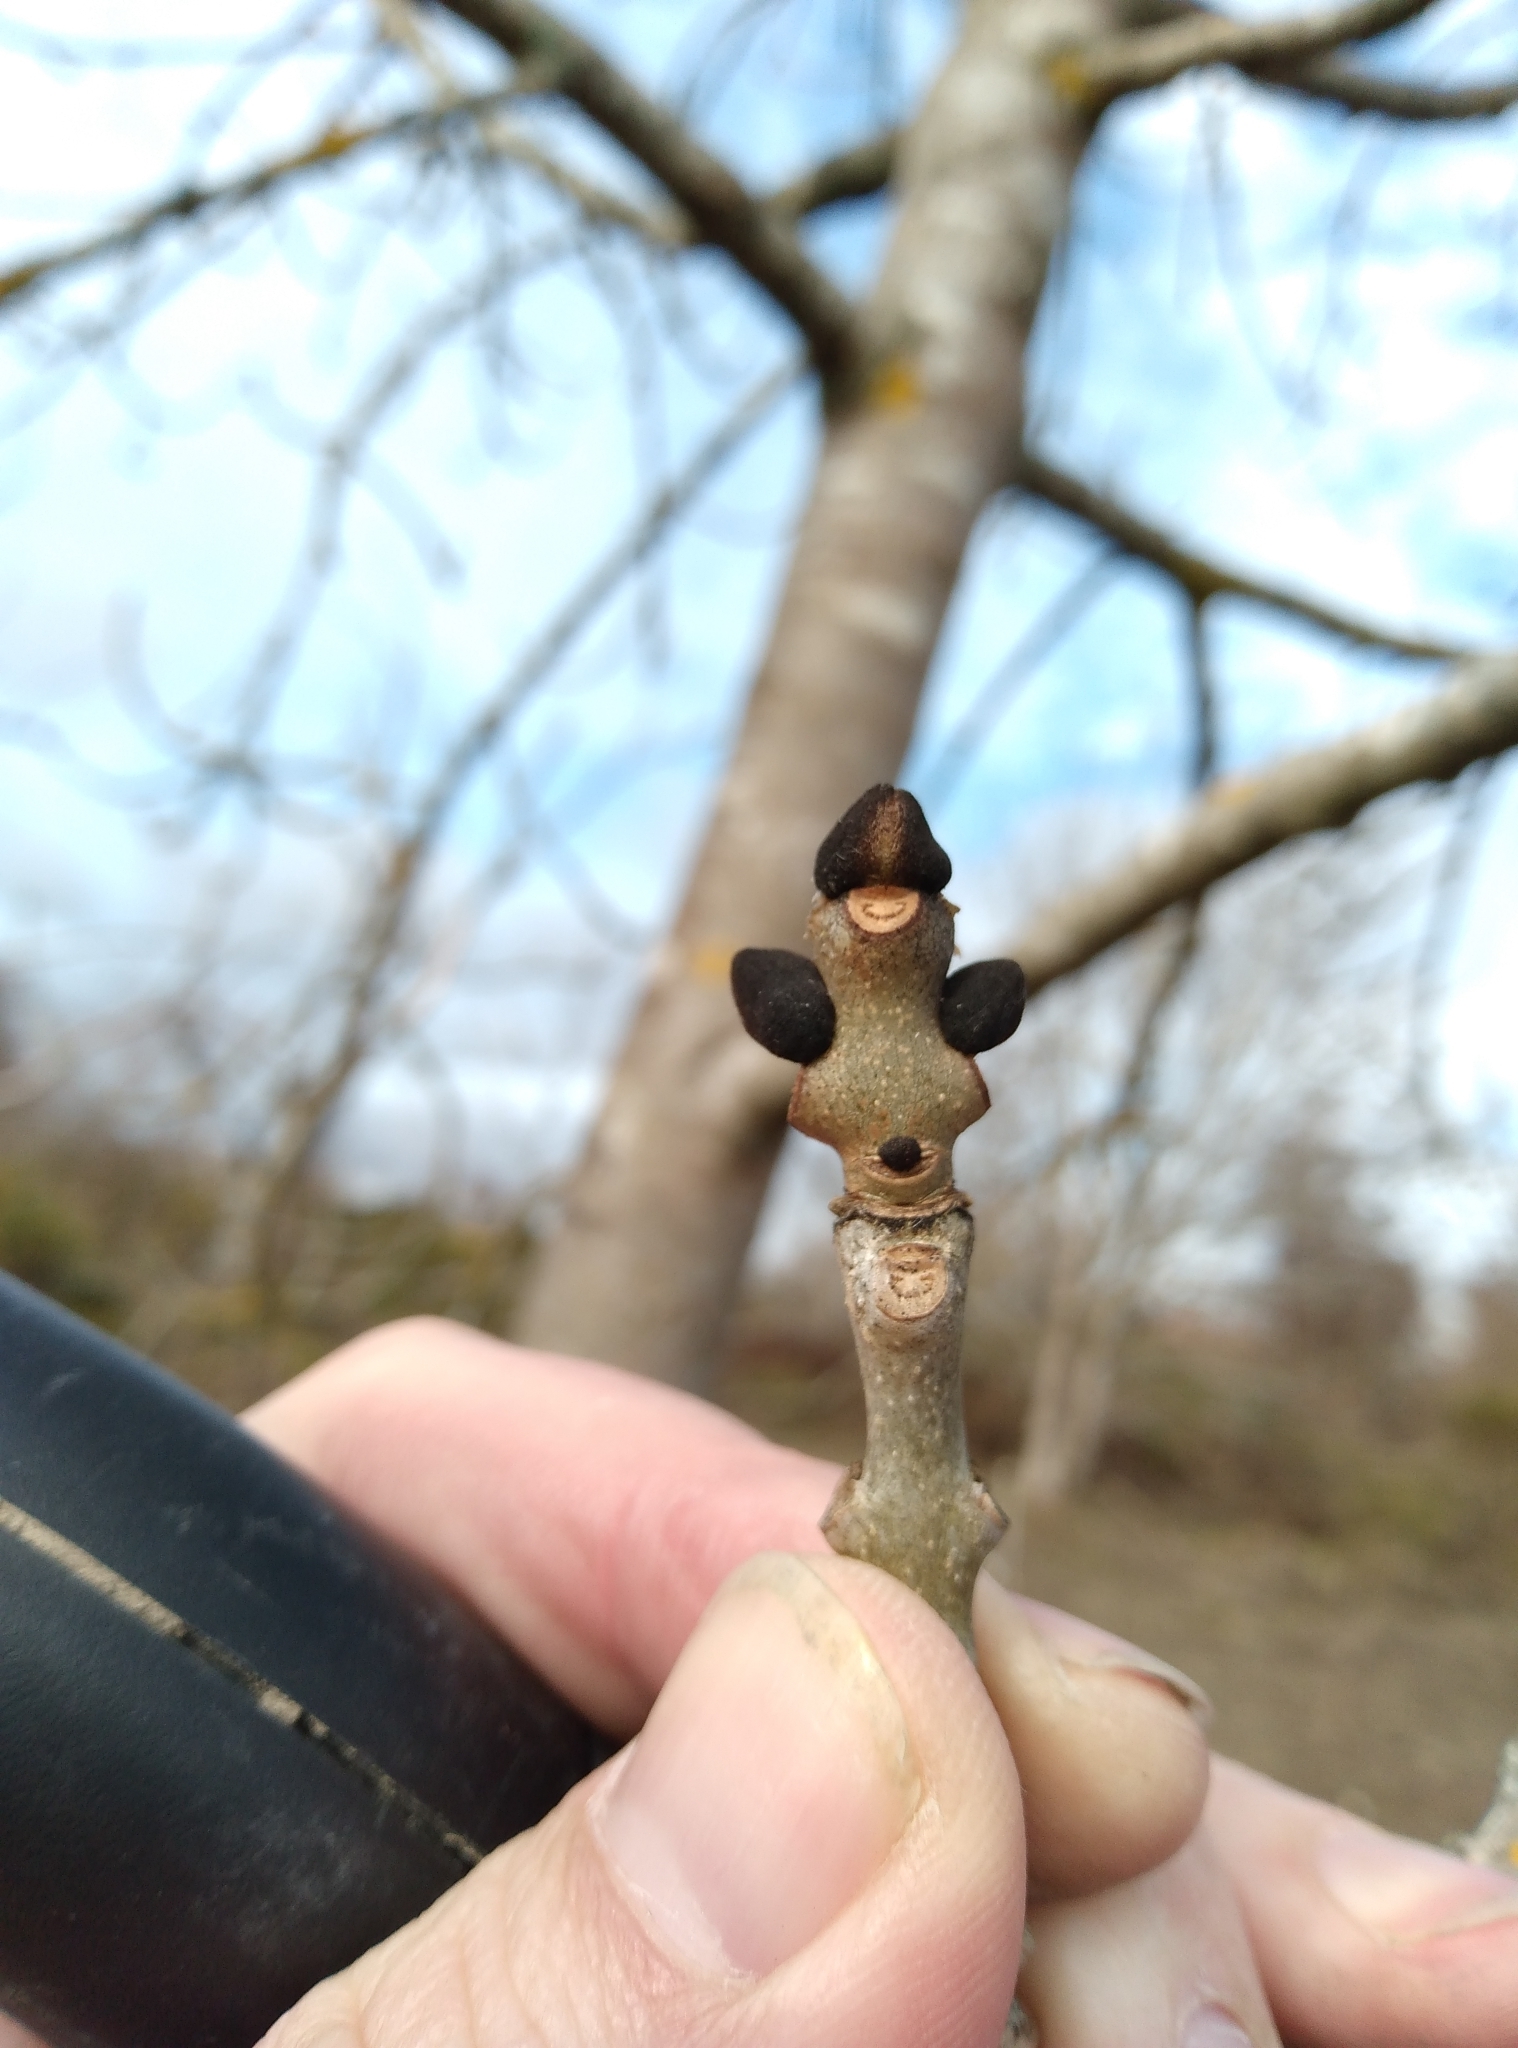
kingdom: Plantae
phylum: Tracheophyta
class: Magnoliopsida
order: Lamiales
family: Oleaceae
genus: Fraxinus
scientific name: Fraxinus excelsior
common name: European ash
